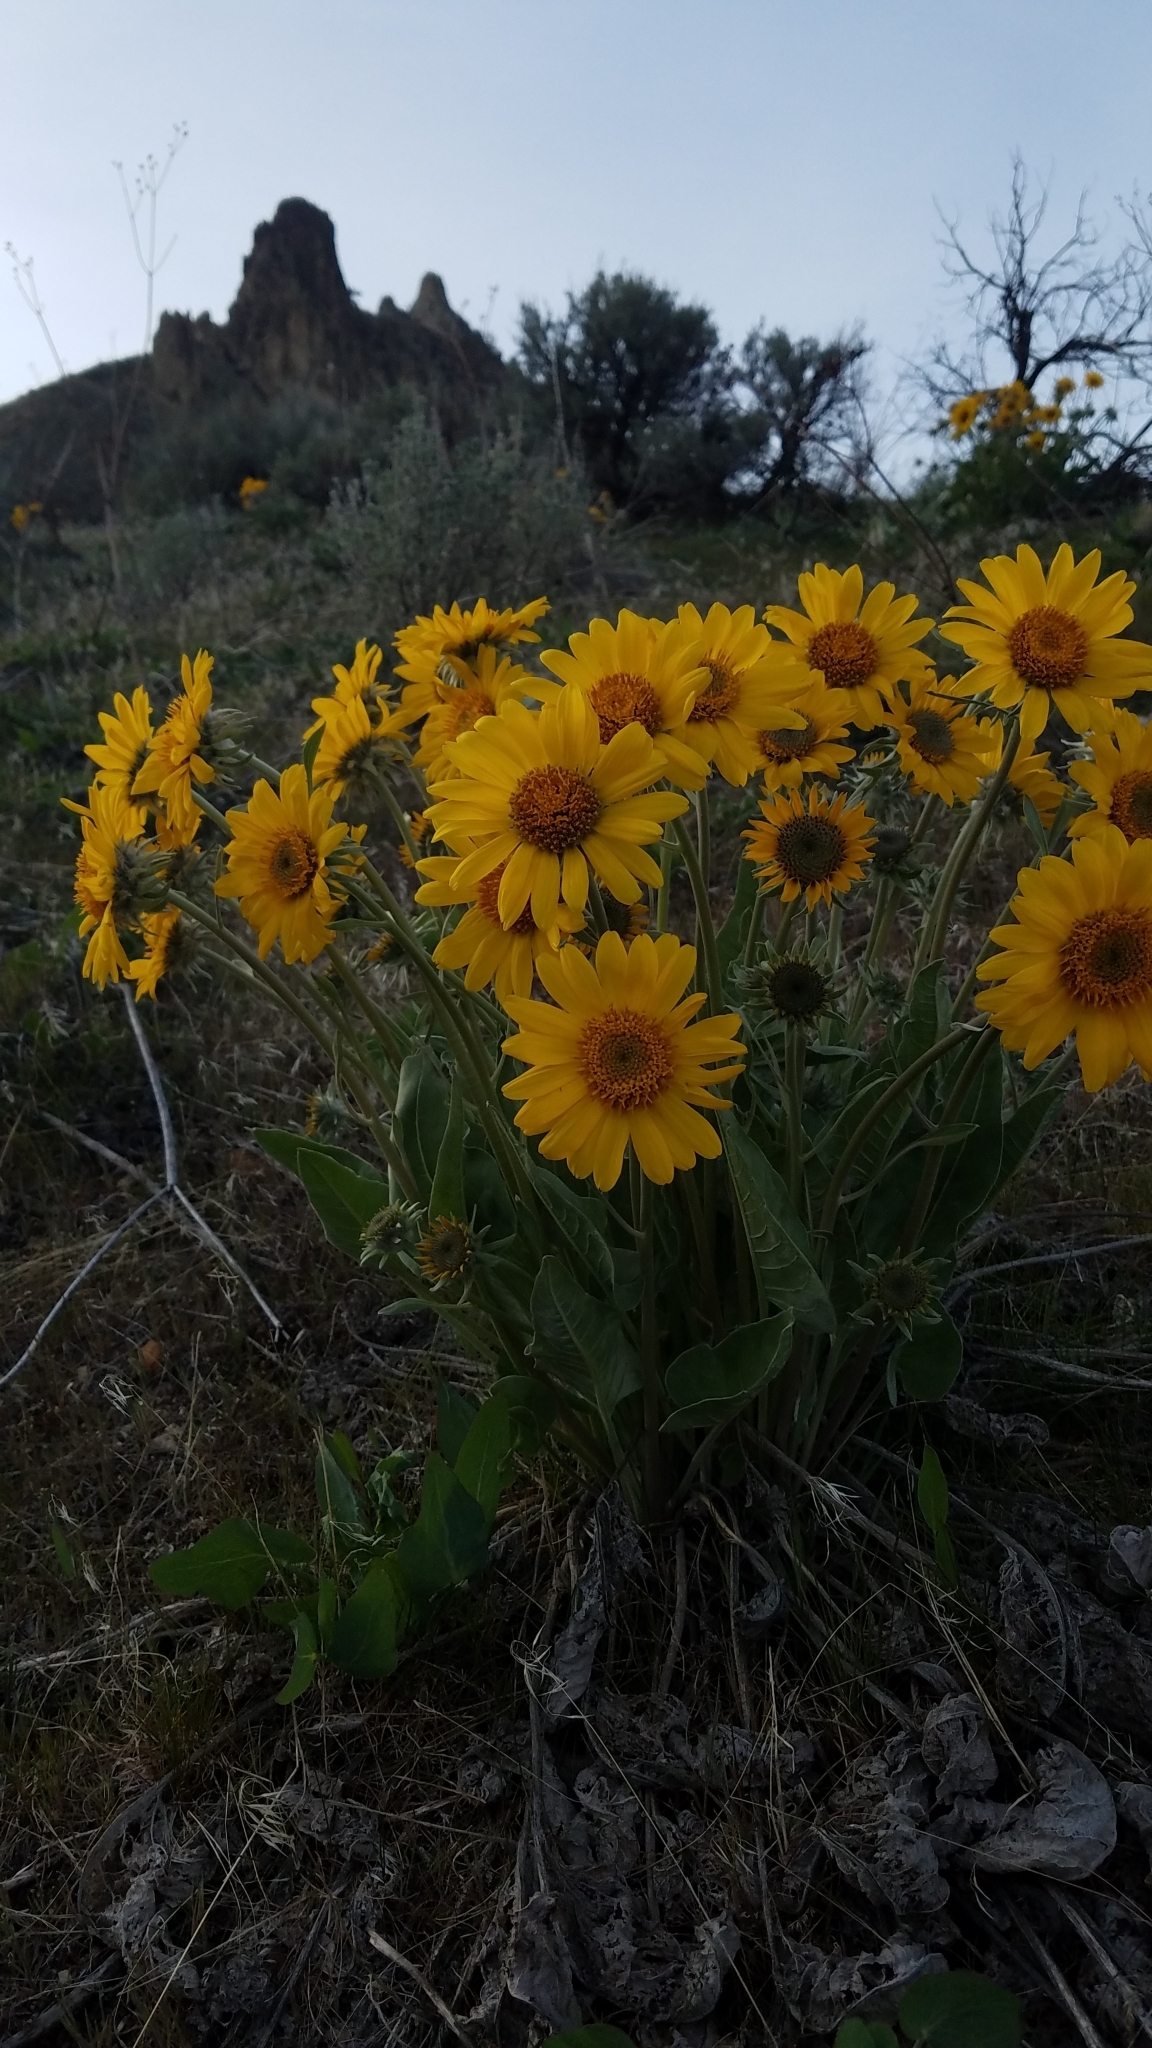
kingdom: Plantae
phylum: Tracheophyta
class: Magnoliopsida
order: Asterales
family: Asteraceae
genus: Wyethia
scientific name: Wyethia sagittata
